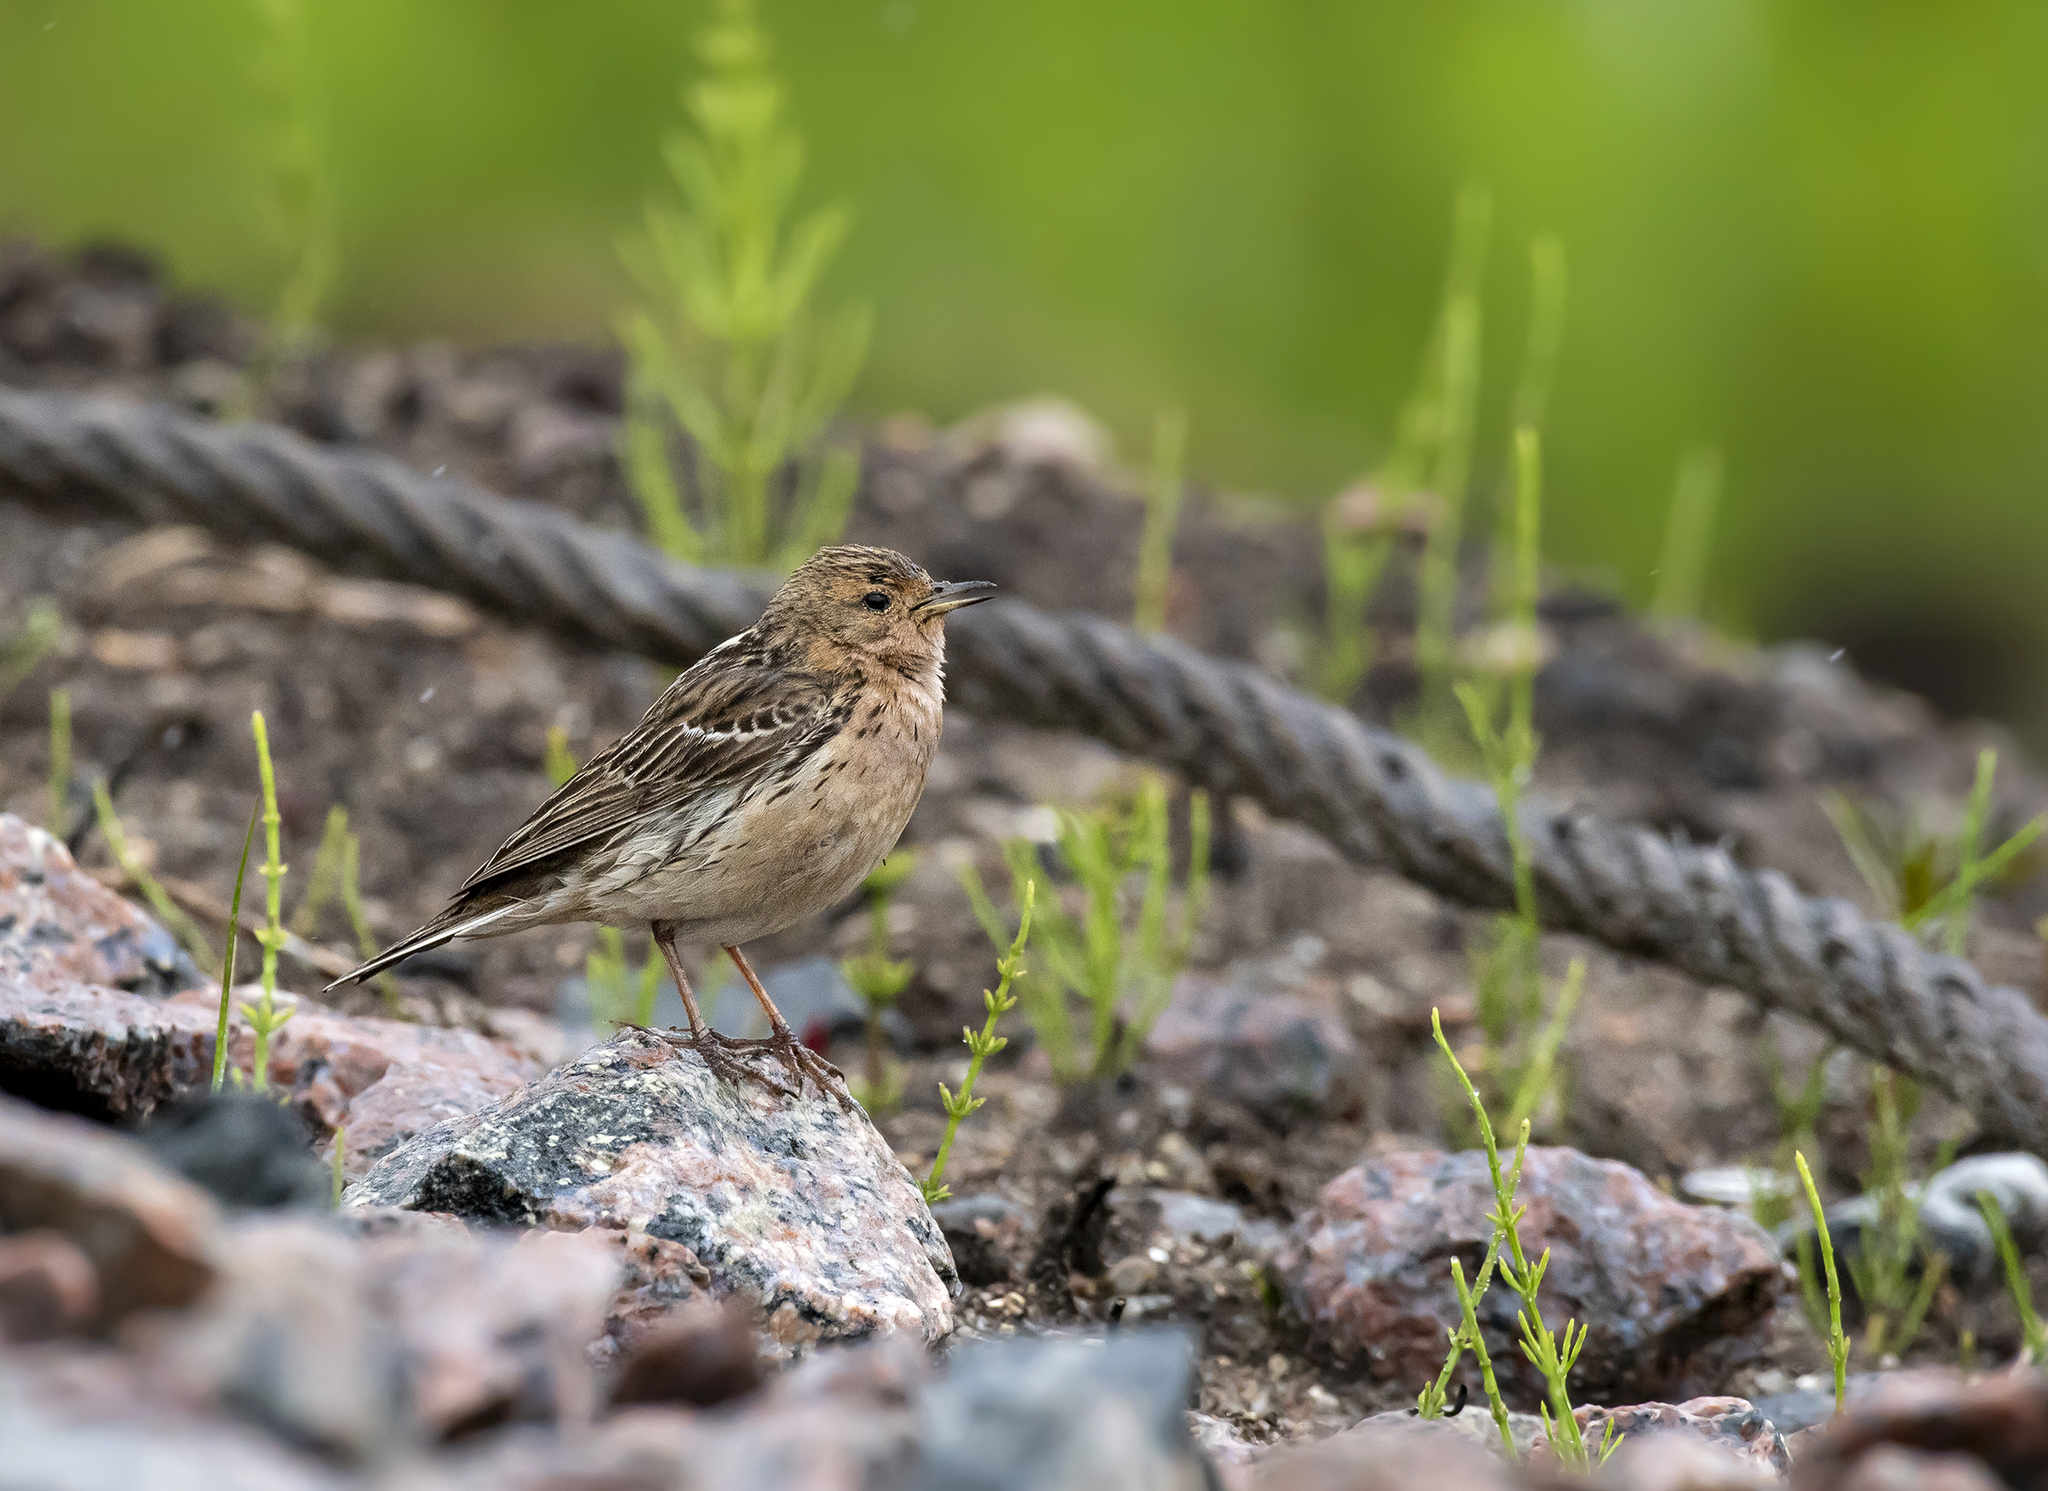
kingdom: Animalia
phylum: Chordata
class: Aves
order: Passeriformes
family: Motacillidae
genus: Anthus
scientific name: Anthus cervinus
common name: Red-throated pipit
